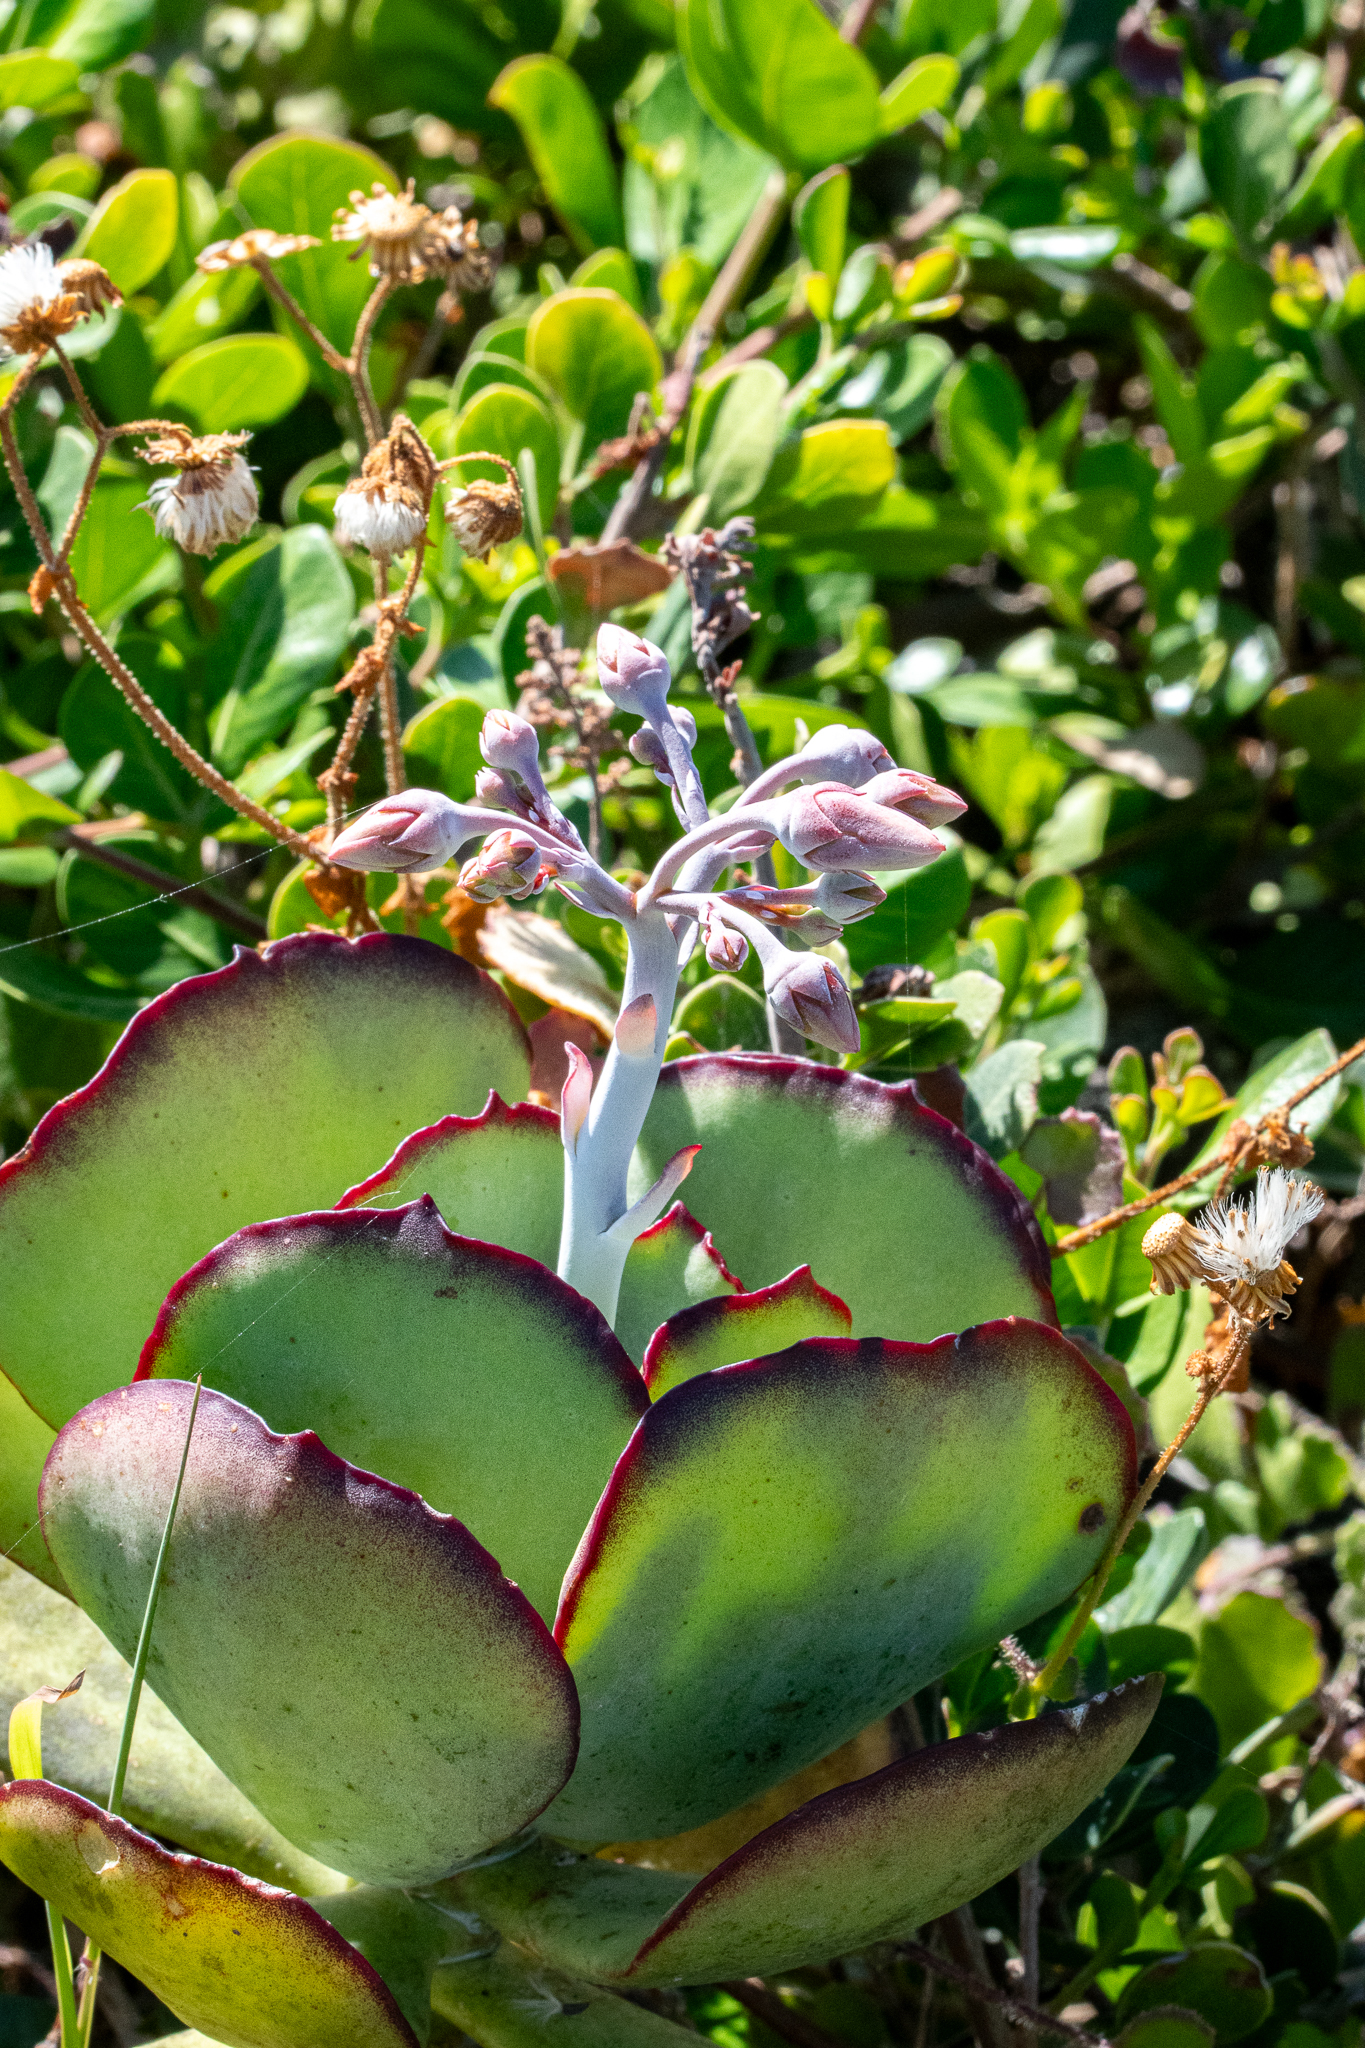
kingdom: Plantae
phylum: Tracheophyta
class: Magnoliopsida
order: Saxifragales
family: Crassulaceae
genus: Cotyledon
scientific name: Cotyledon orbiculata
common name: Pig's ear
